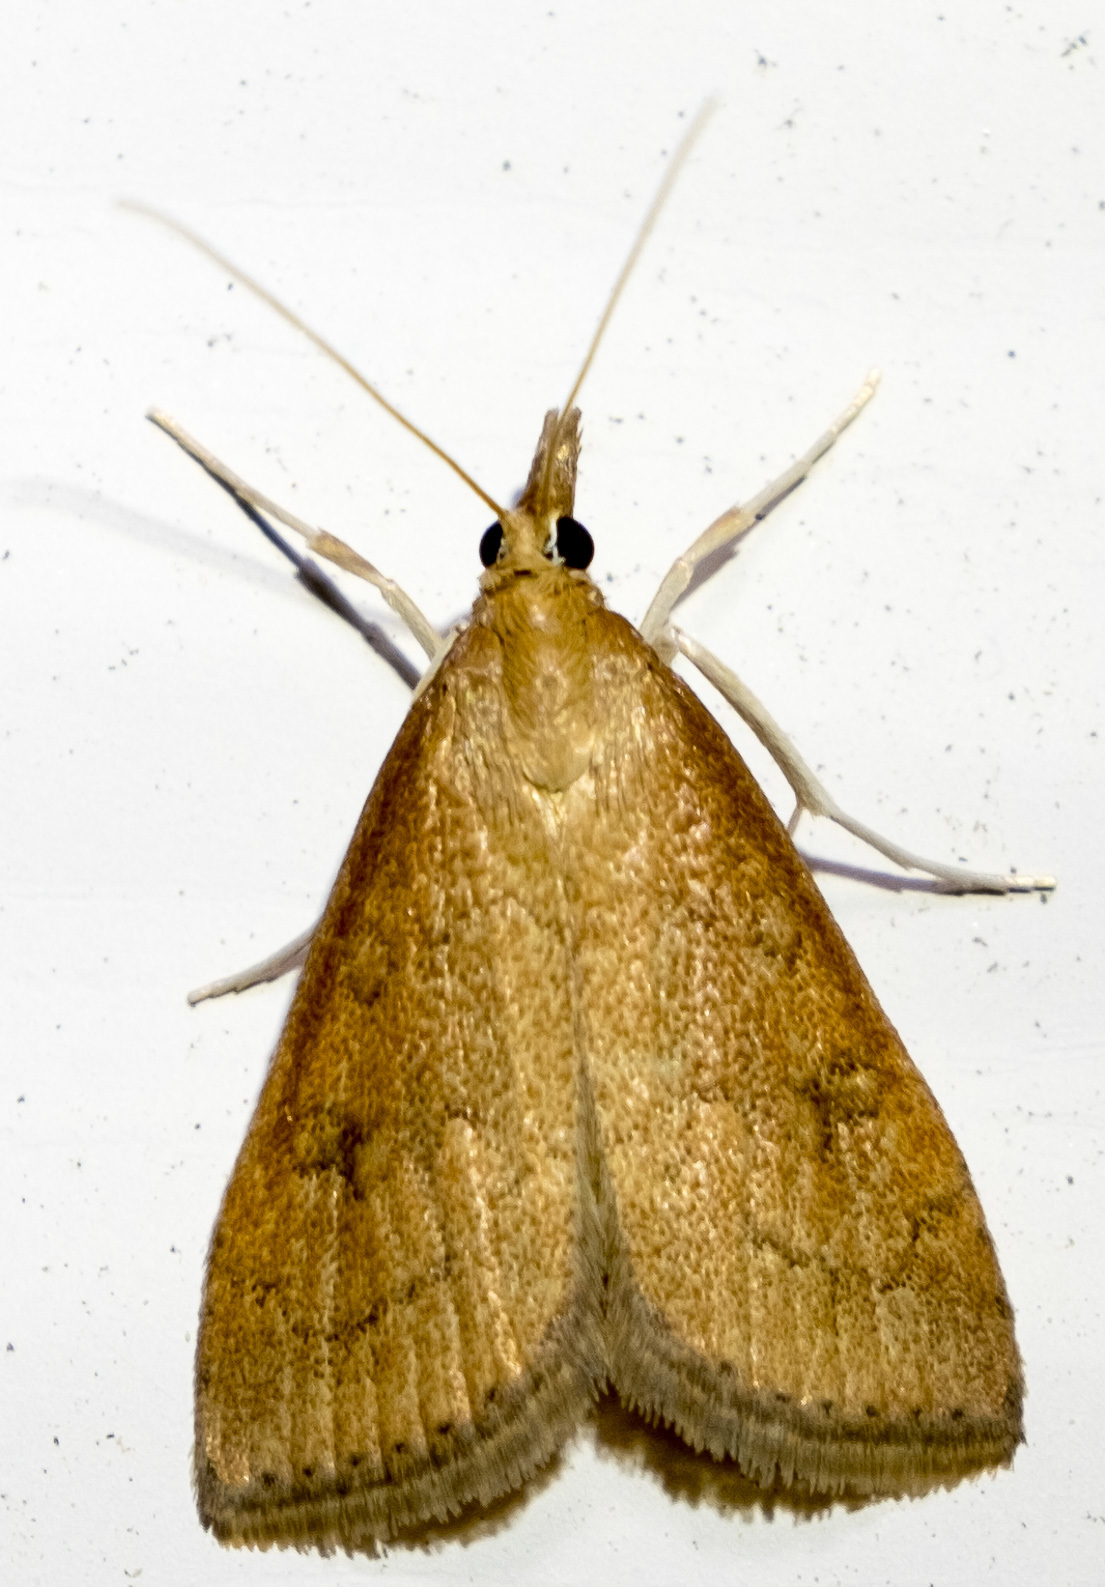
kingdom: Animalia
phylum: Arthropoda
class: Insecta
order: Lepidoptera
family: Crambidae
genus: Udea
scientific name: Udea rubigalis
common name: Celery leaftier moth
